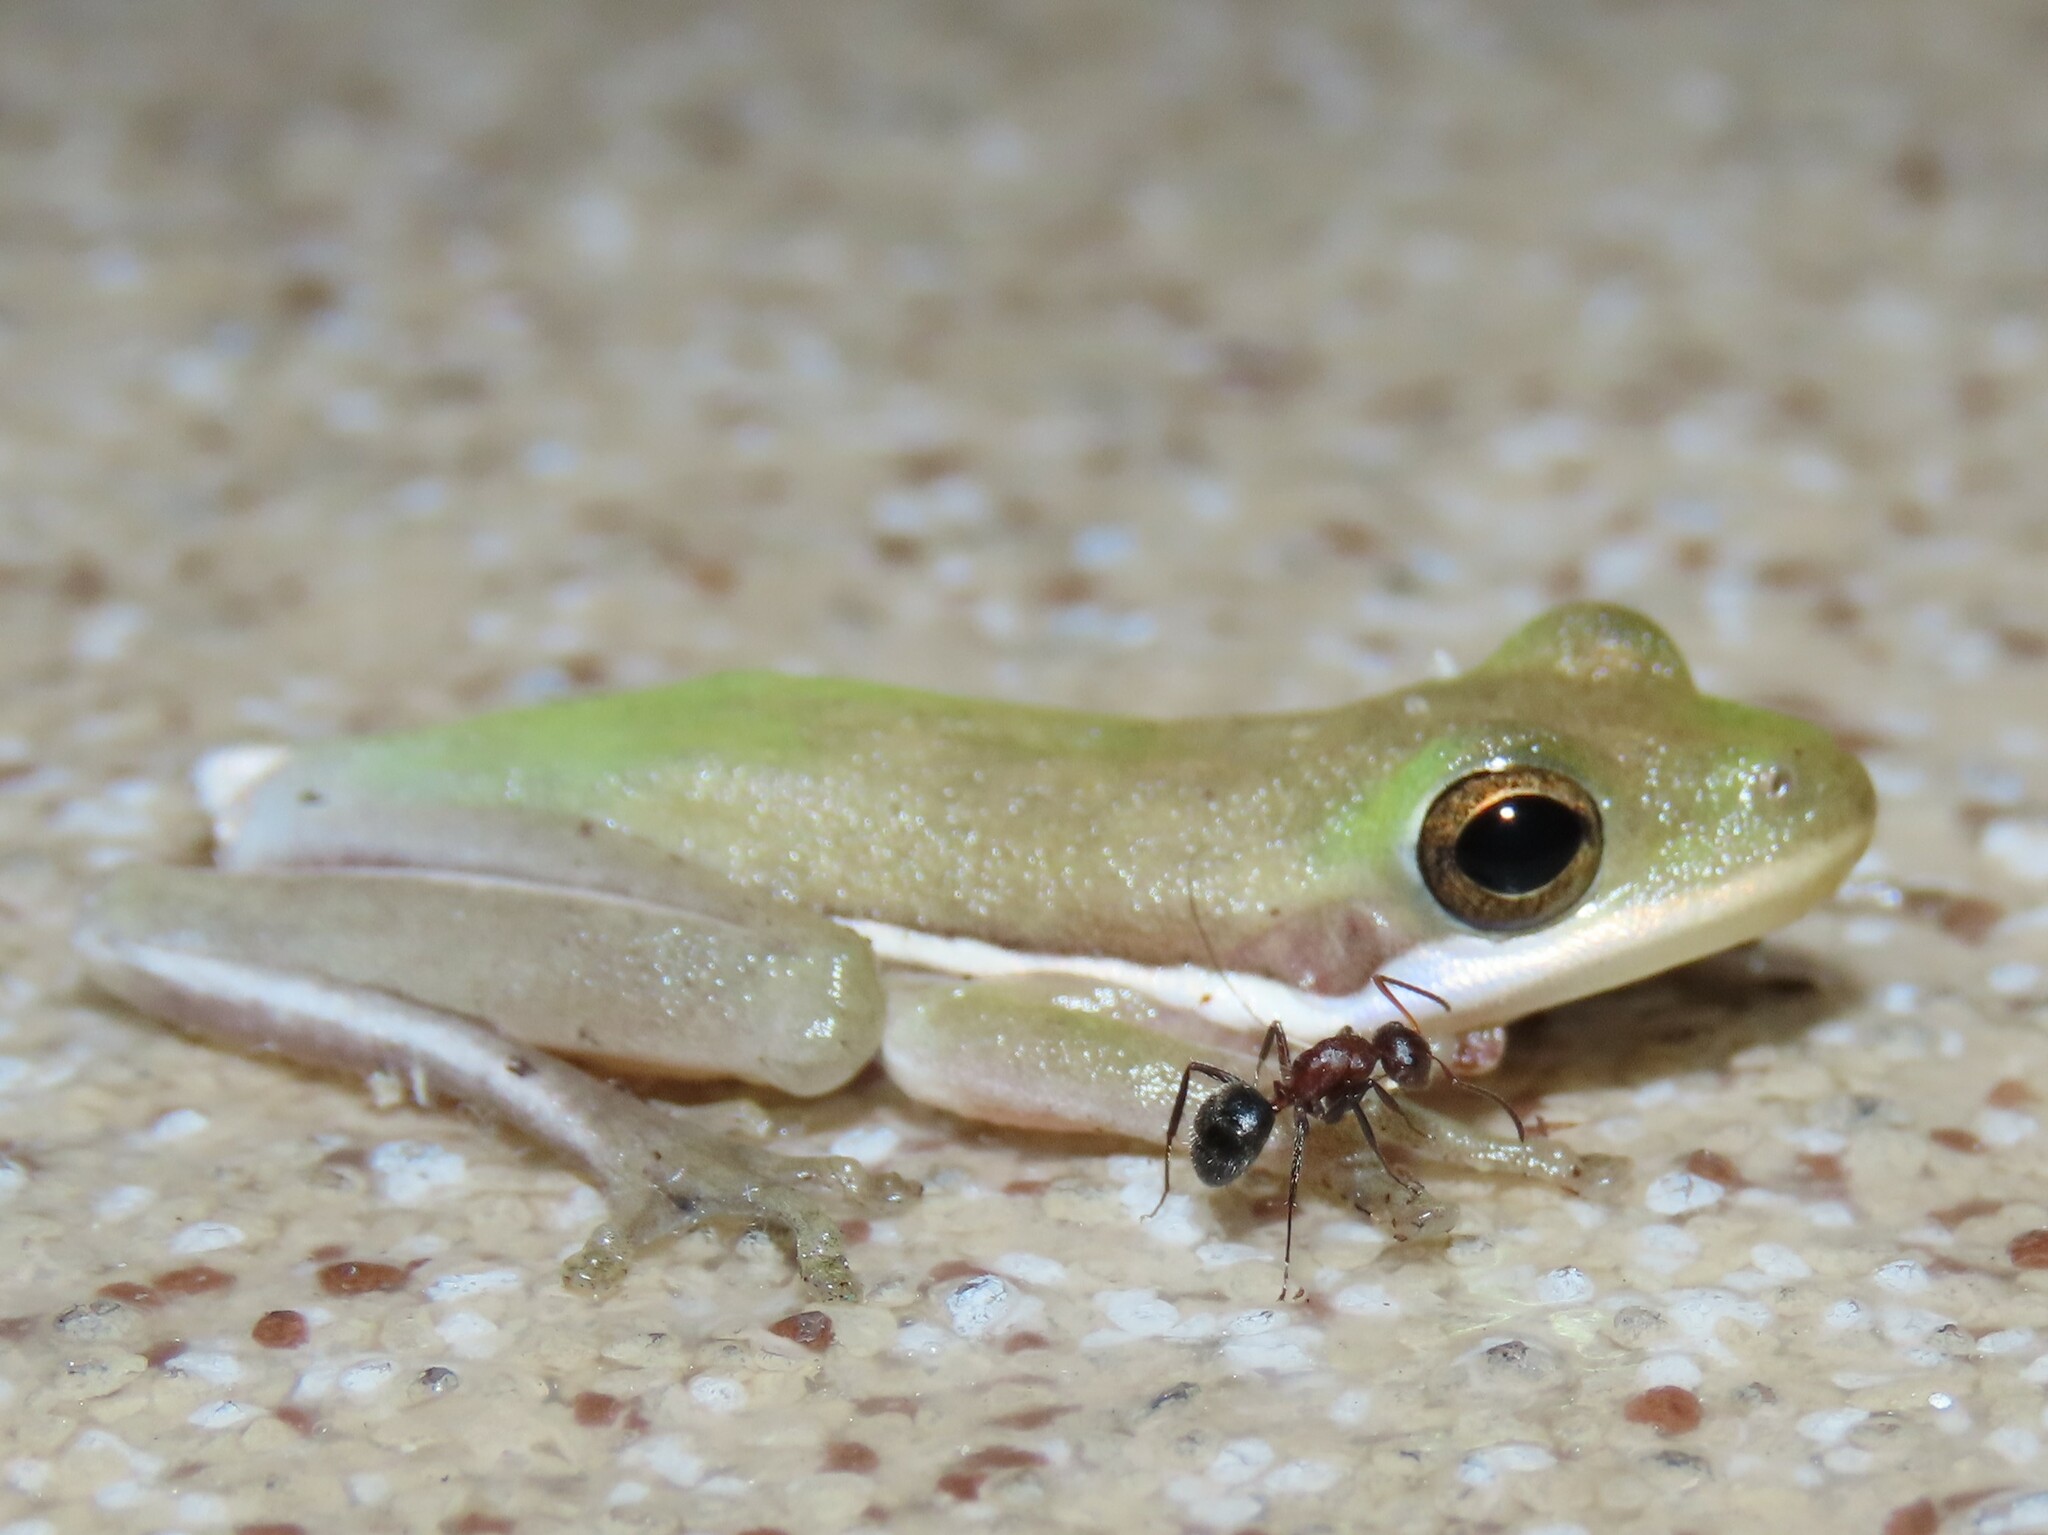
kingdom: Animalia
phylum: Chordata
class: Amphibia
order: Anura
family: Hylidae
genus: Dryophytes
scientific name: Dryophytes cinereus
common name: Green treefrog
